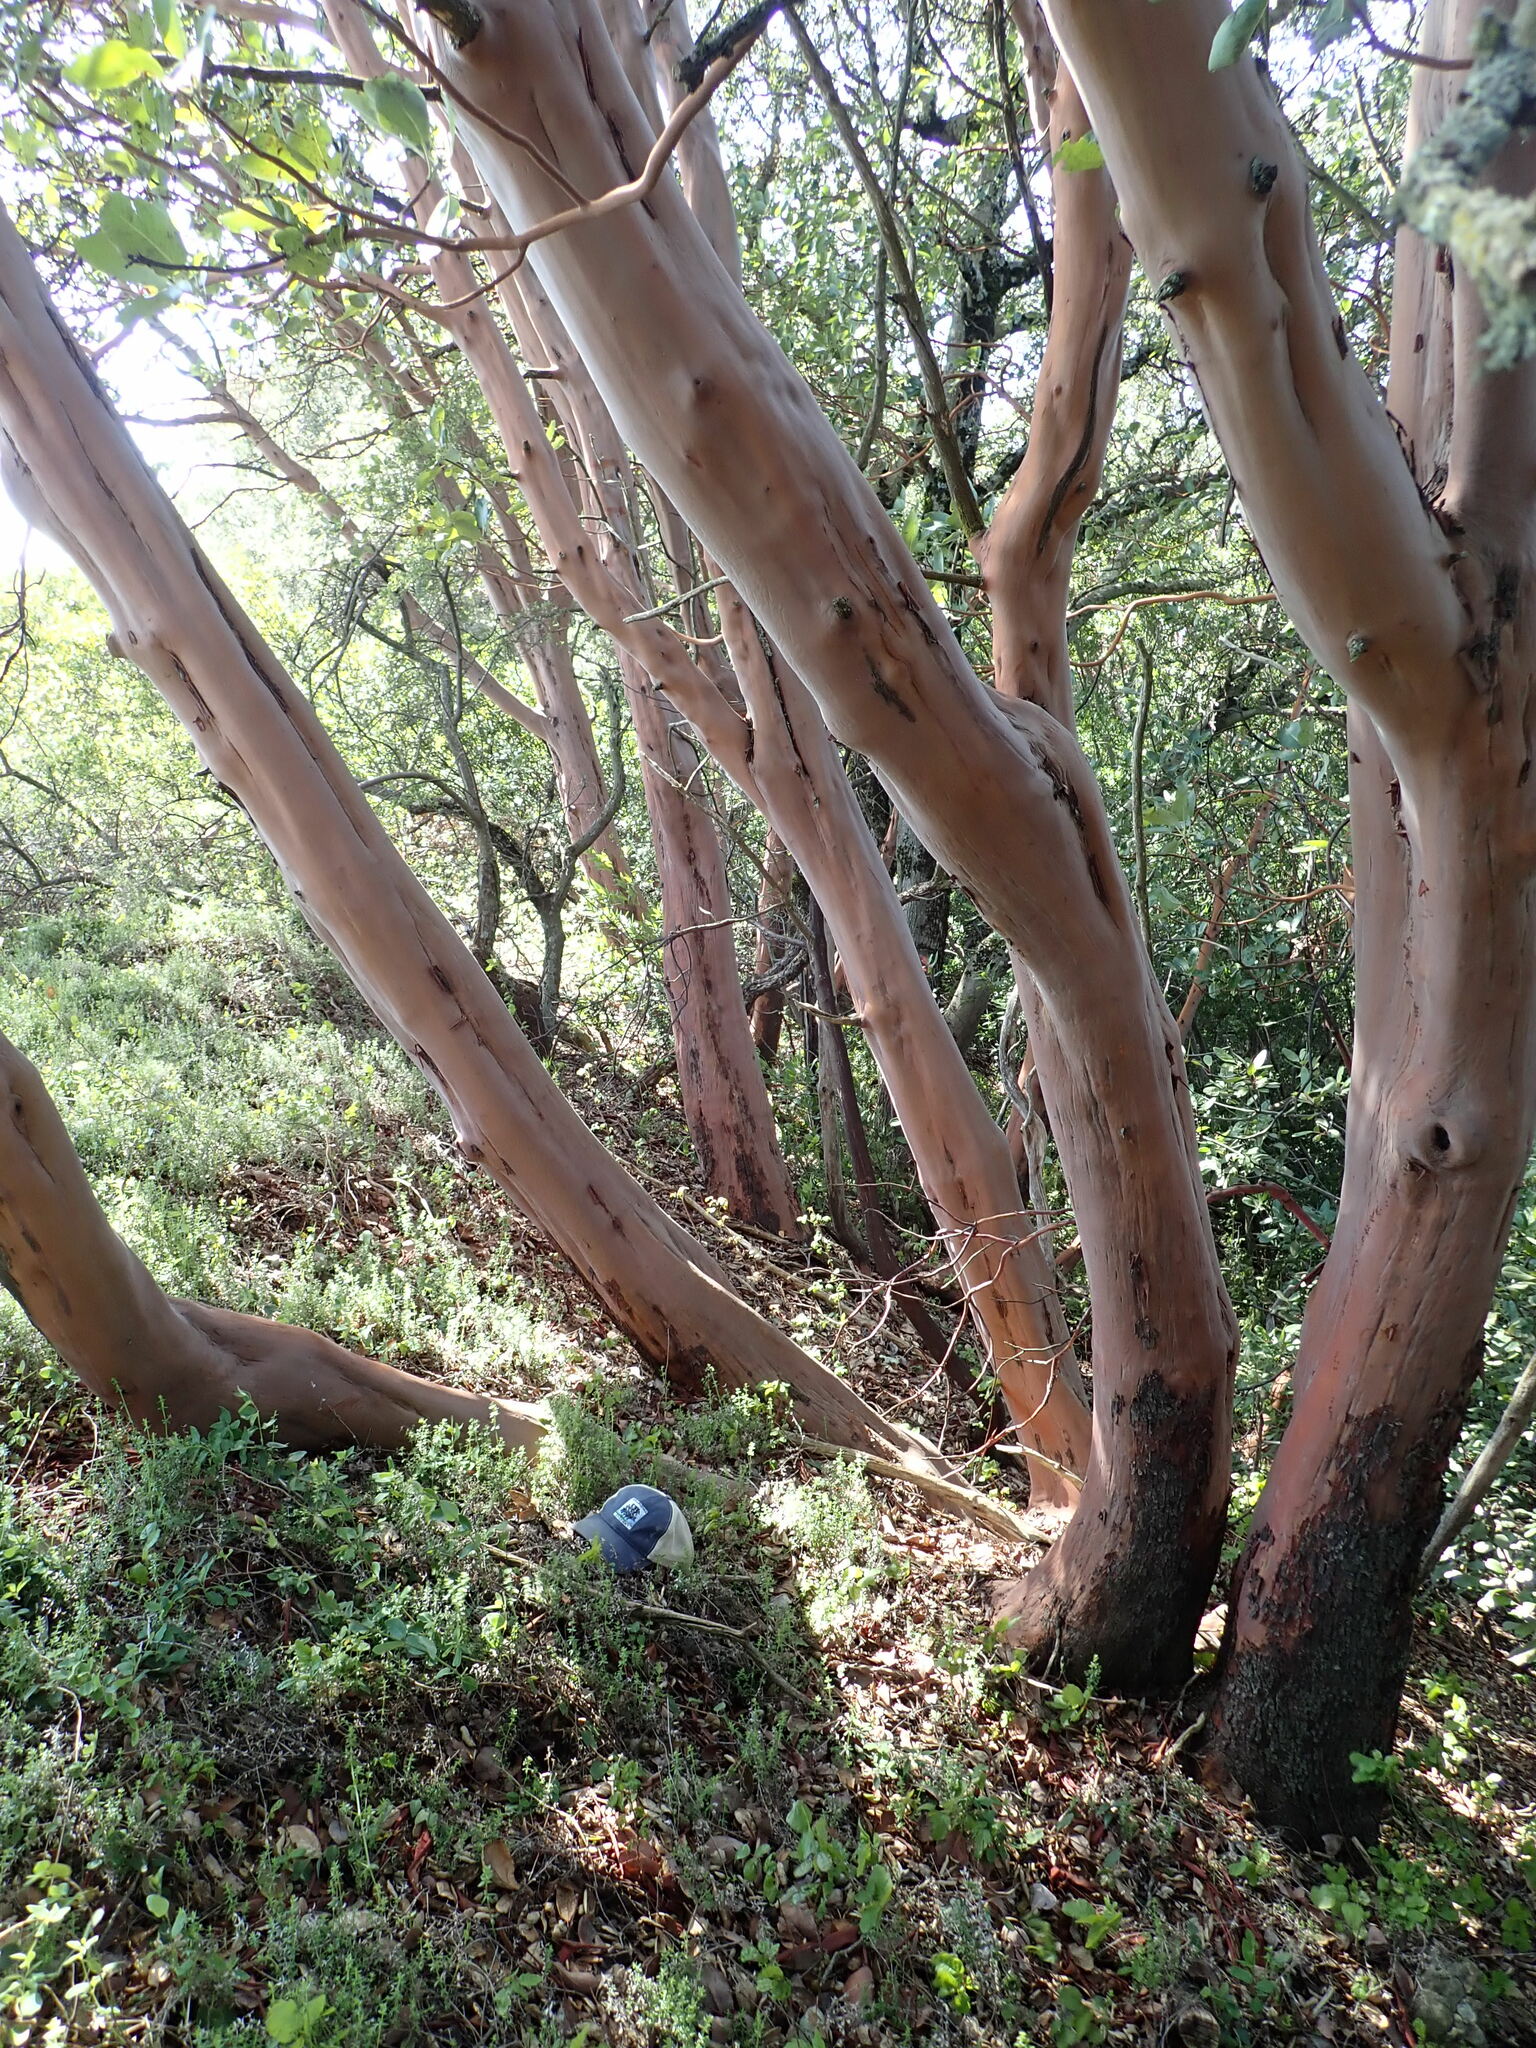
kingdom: Plantae
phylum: Tracheophyta
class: Magnoliopsida
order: Ericales
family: Ericaceae
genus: Arbutus
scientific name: Arbutus menziesii
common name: Pacific madrone
